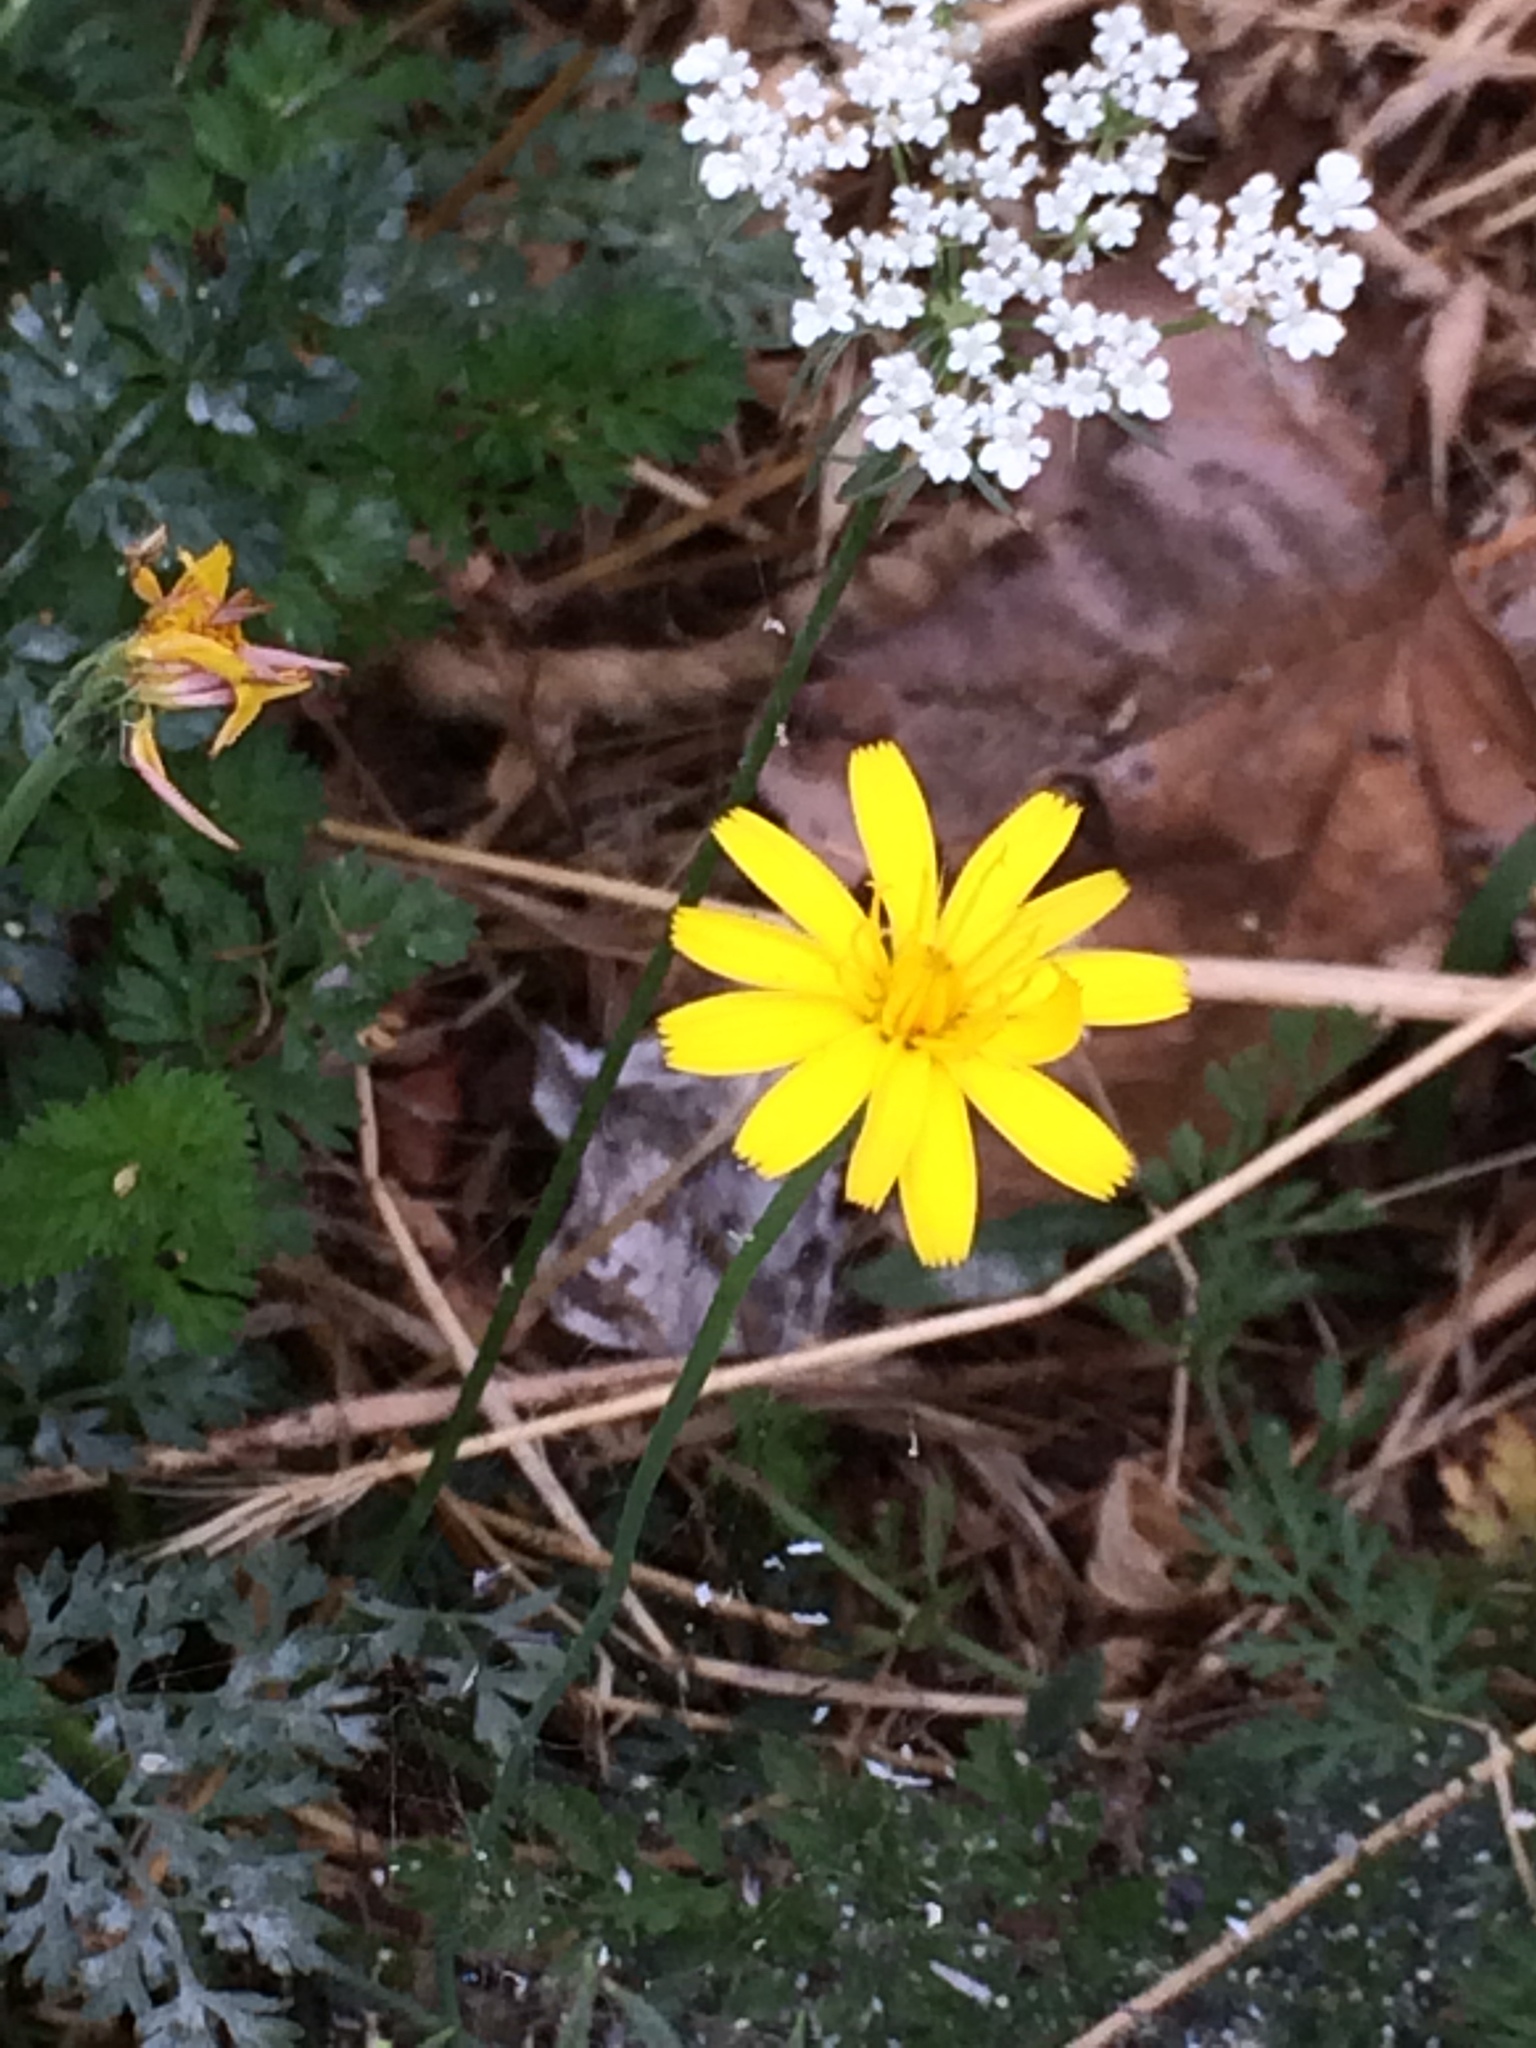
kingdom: Plantae
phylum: Tracheophyta
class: Magnoliopsida
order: Asterales
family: Asteraceae
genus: Hypochaeris
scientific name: Hypochaeris radicata
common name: Flatweed
